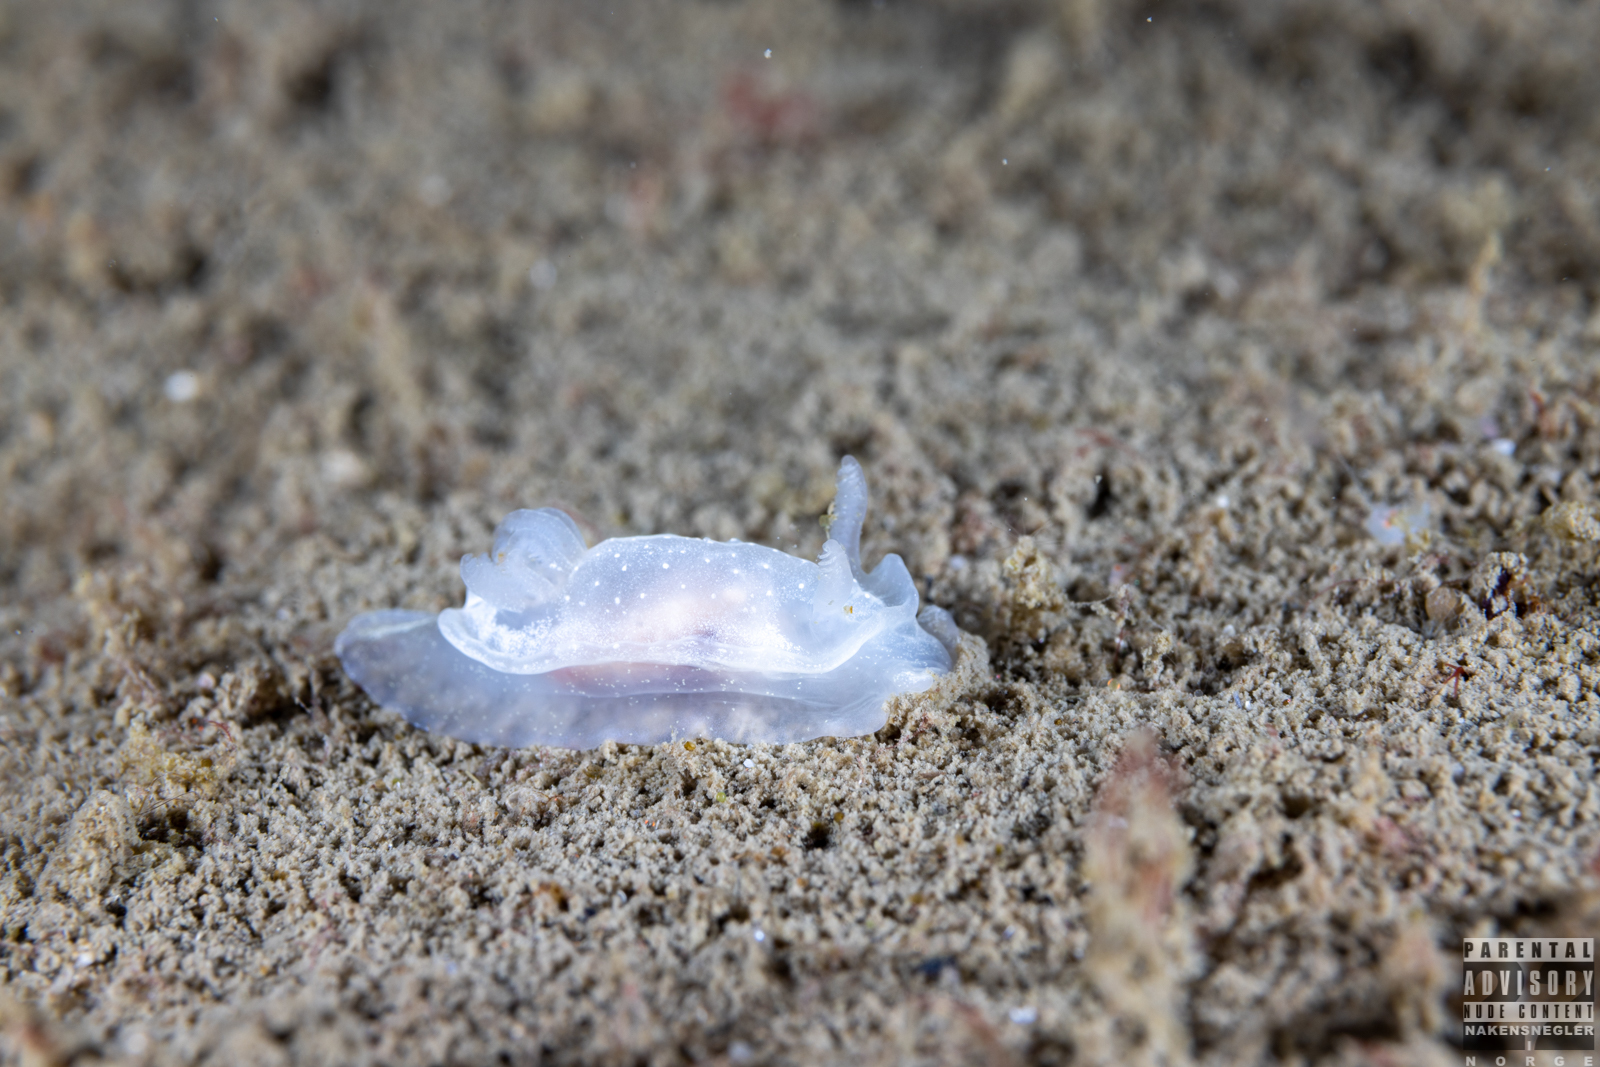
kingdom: Animalia
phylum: Mollusca
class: Gastropoda
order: Nudibranchia
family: Goniodorididae
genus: Okenia
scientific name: Okenia
